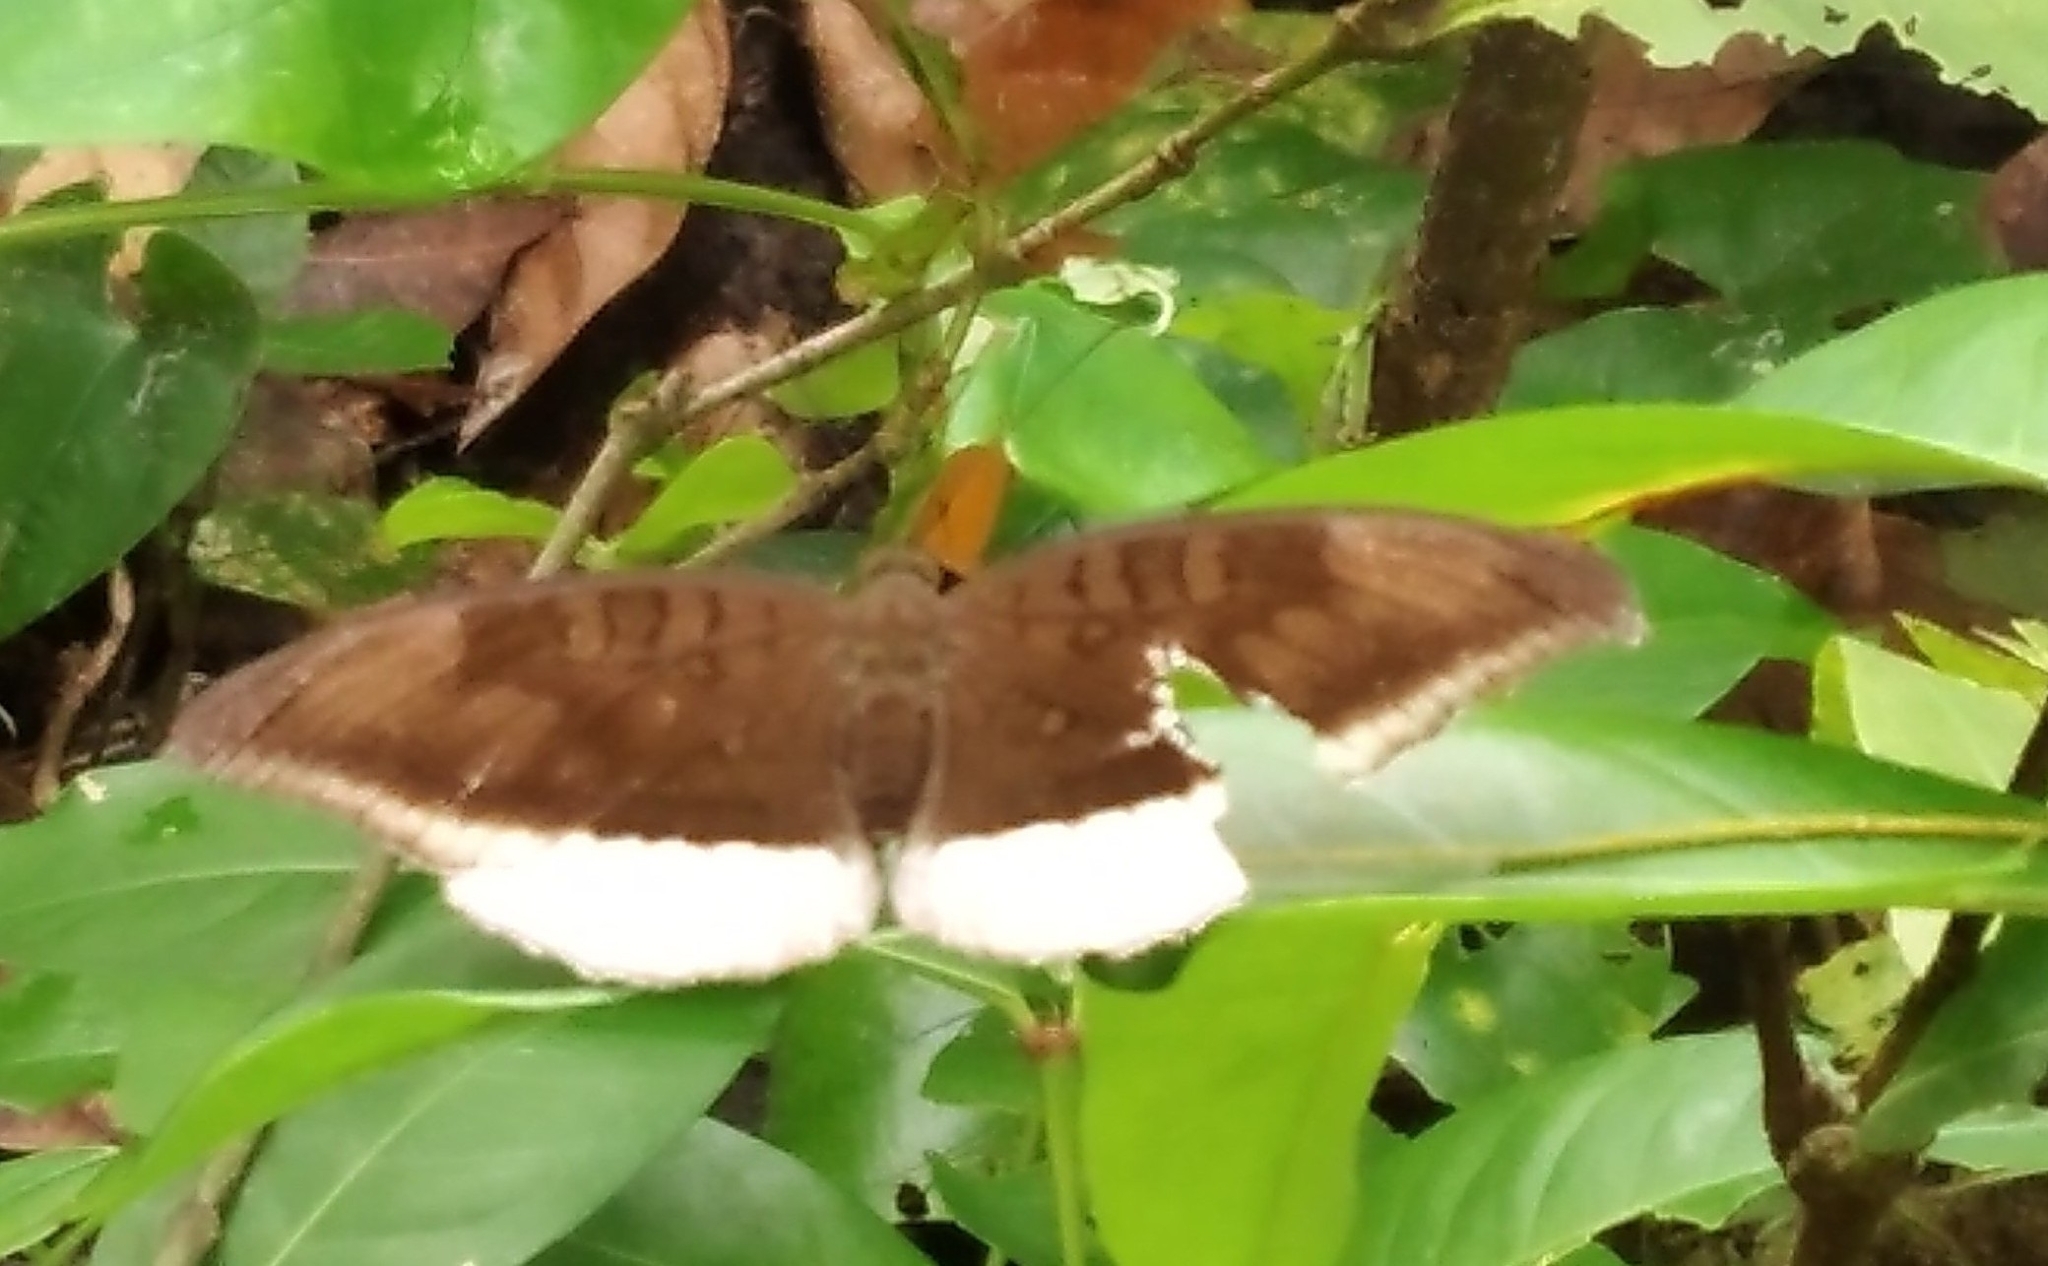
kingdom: Animalia
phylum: Arthropoda
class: Insecta
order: Lepidoptera
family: Nymphalidae
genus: Tanaecia
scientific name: Tanaecia lepidea
